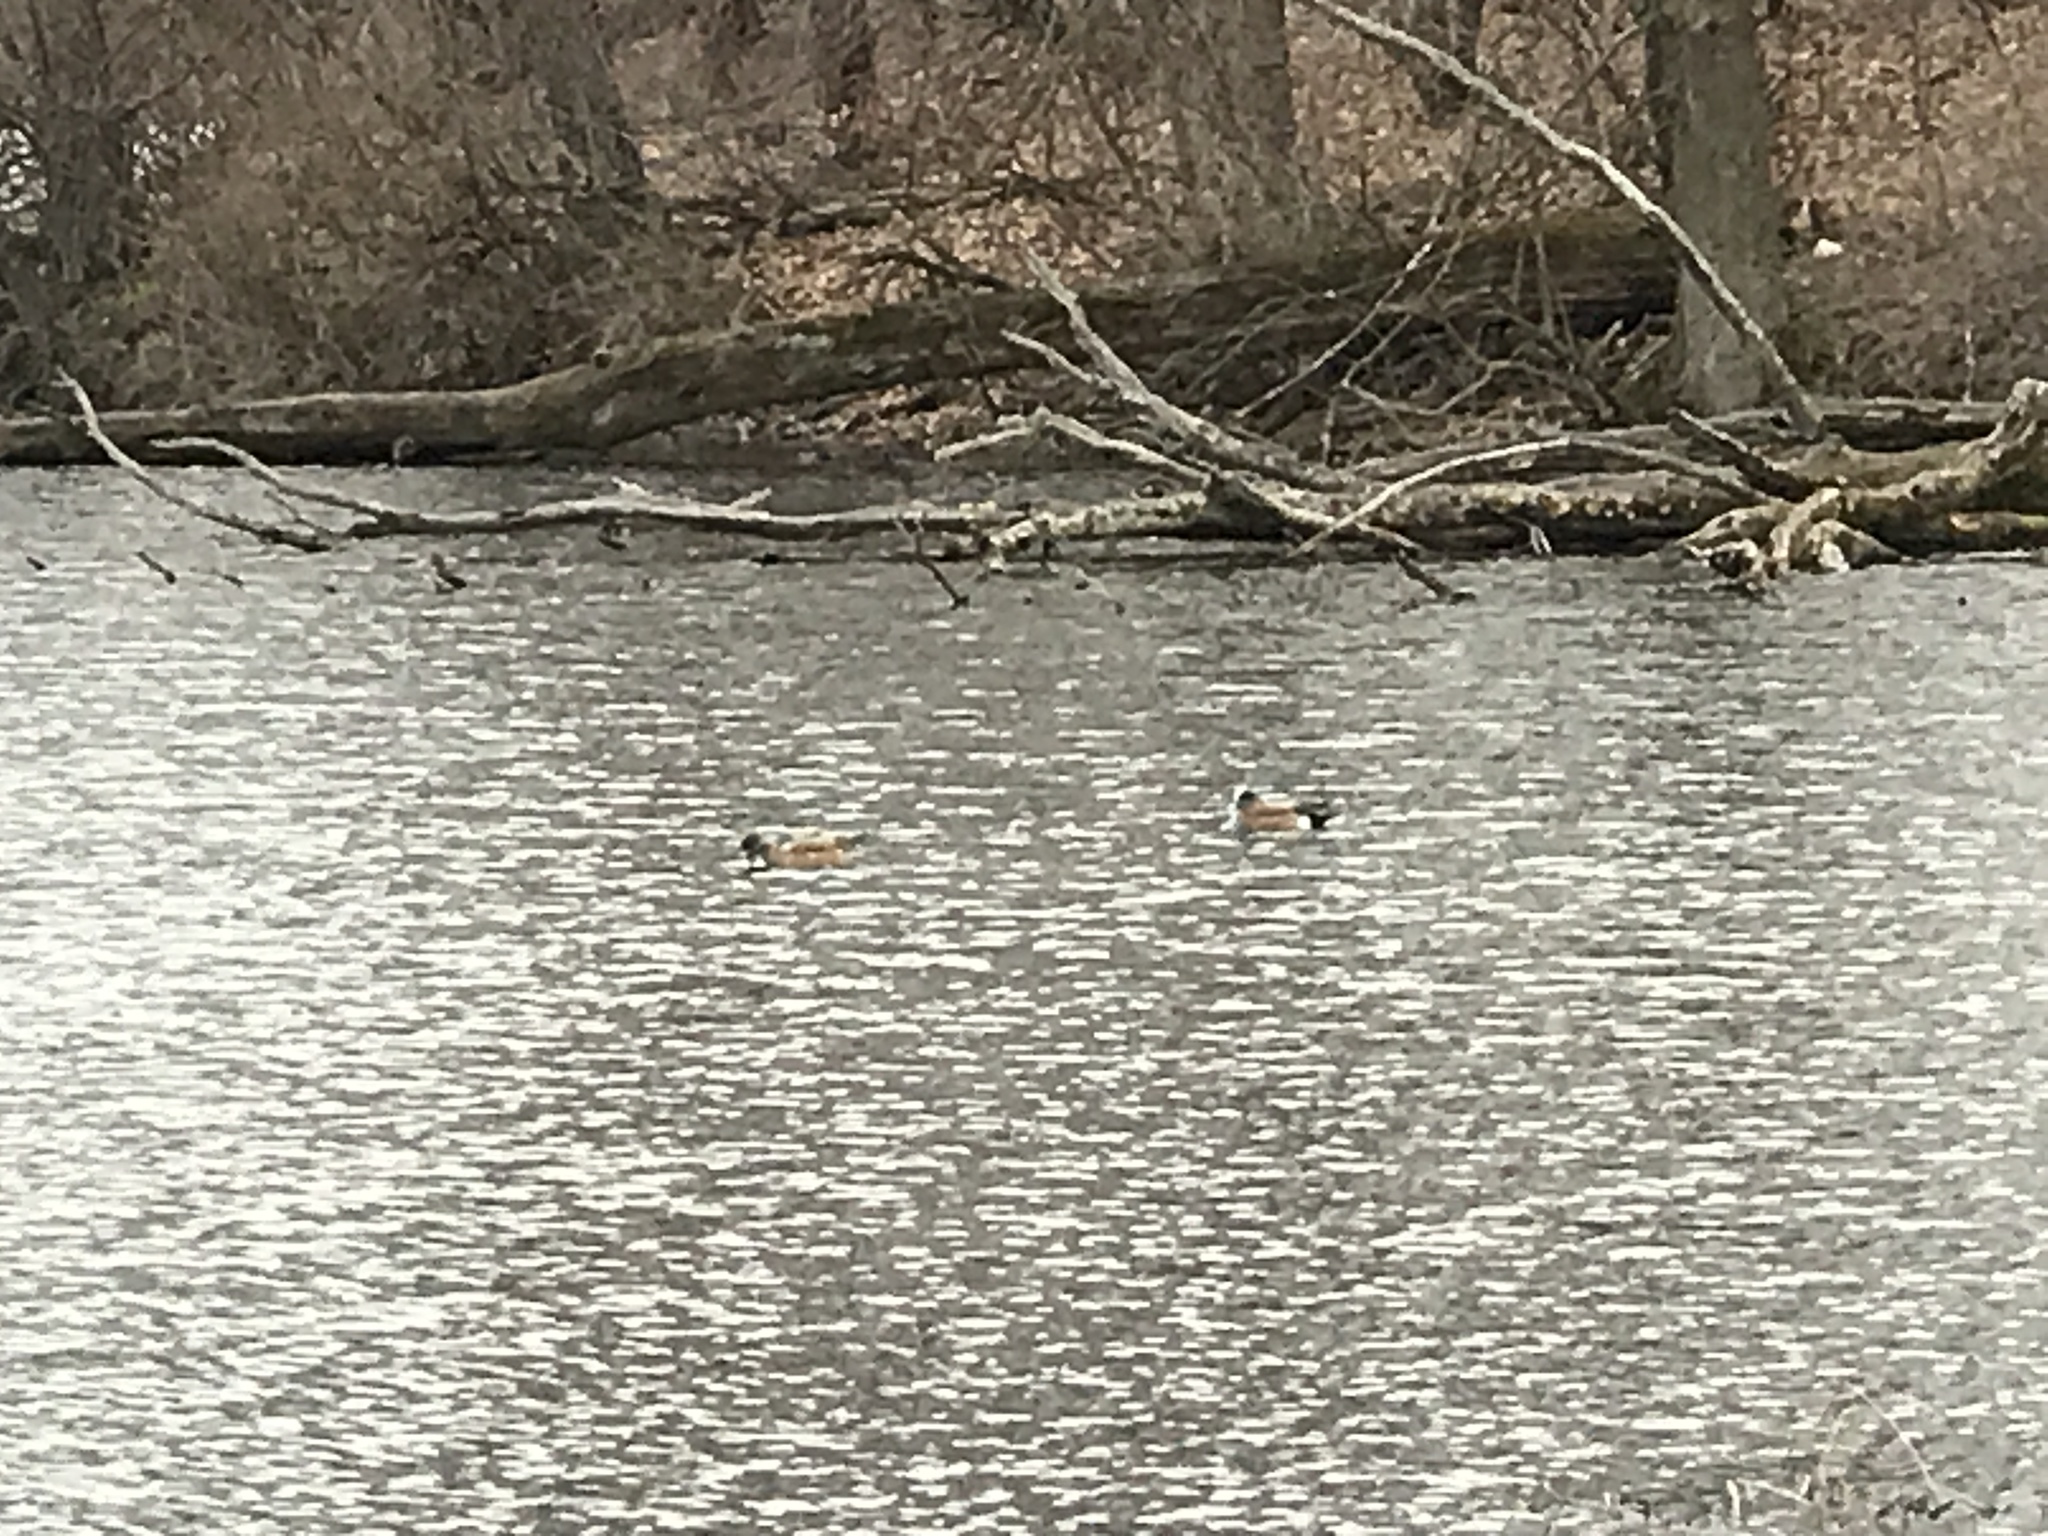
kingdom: Animalia
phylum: Chordata
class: Aves
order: Anseriformes
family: Anatidae
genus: Mareca
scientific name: Mareca americana
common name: American wigeon
